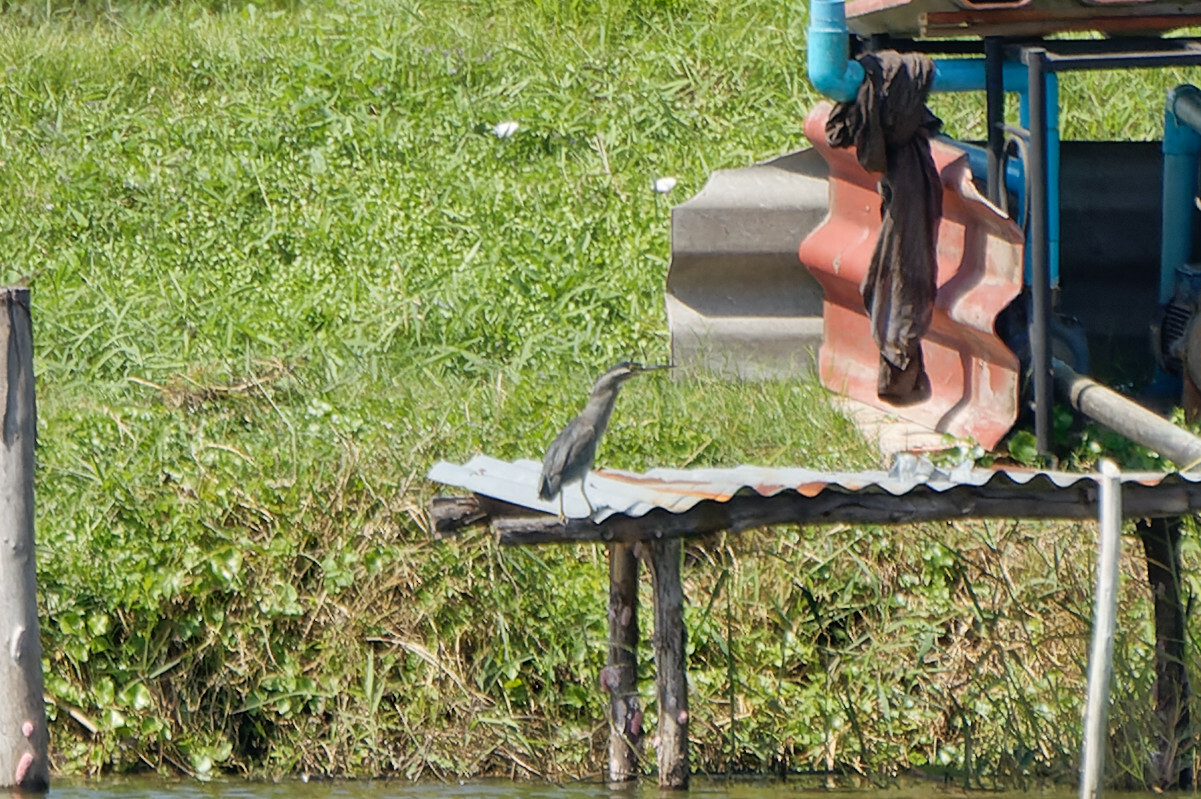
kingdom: Animalia
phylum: Chordata
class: Aves
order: Pelecaniformes
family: Ardeidae
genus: Butorides
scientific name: Butorides striata
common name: Striated heron
